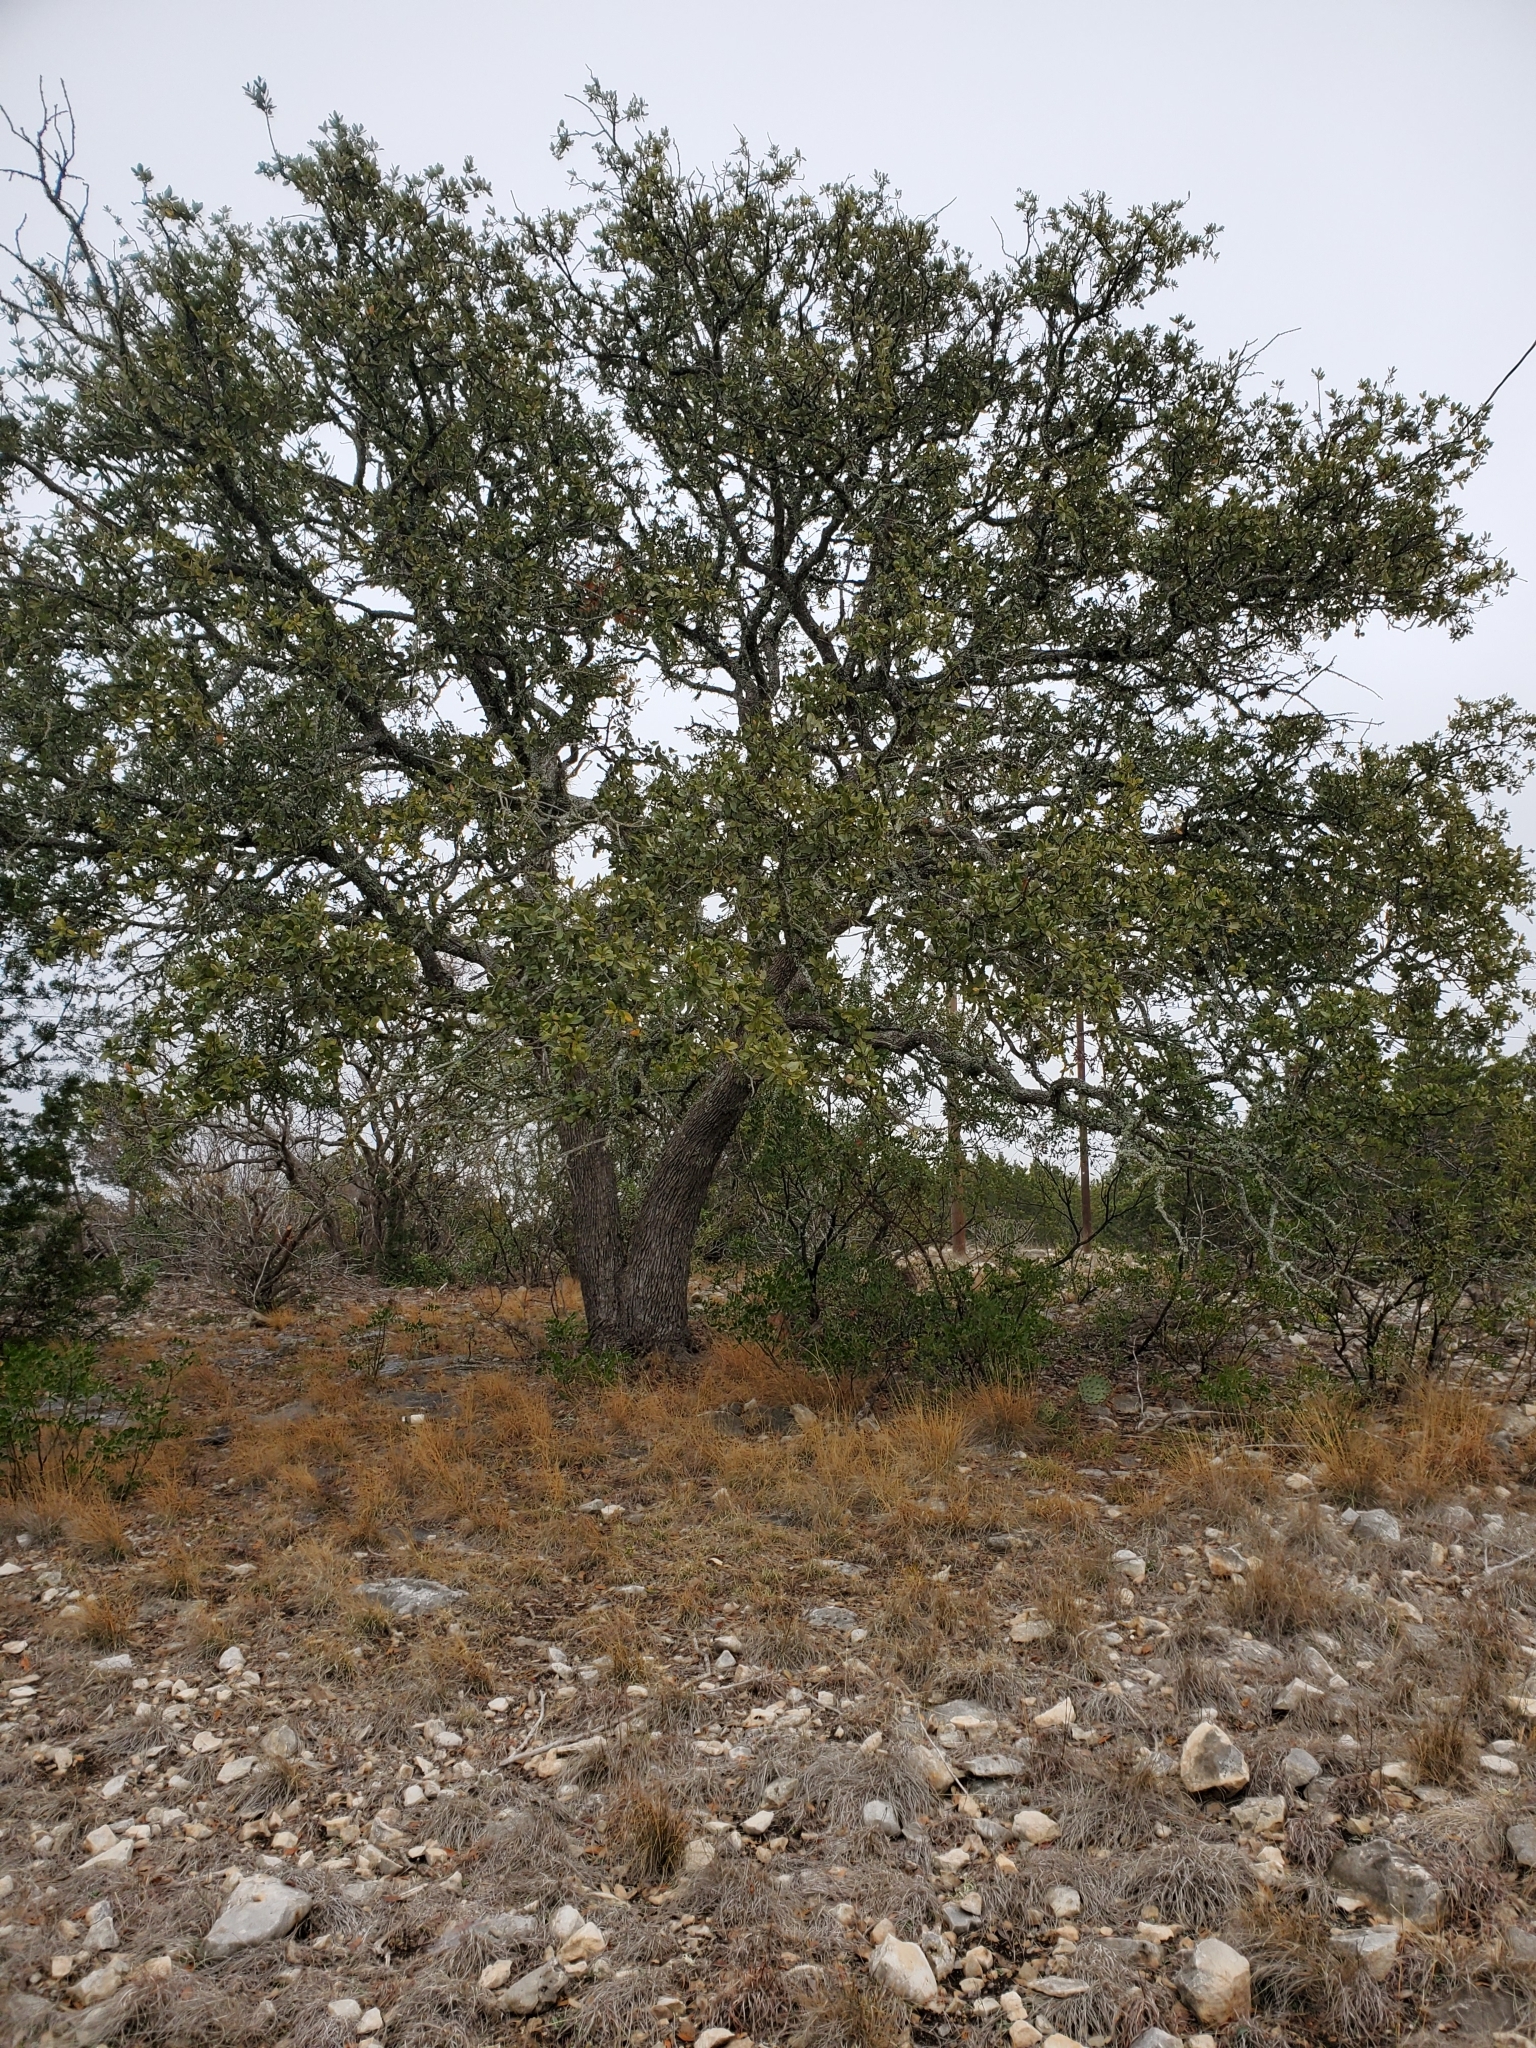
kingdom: Plantae
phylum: Tracheophyta
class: Magnoliopsida
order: Fagales
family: Fagaceae
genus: Quercus
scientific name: Quercus fusiformis
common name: Texas live oak
